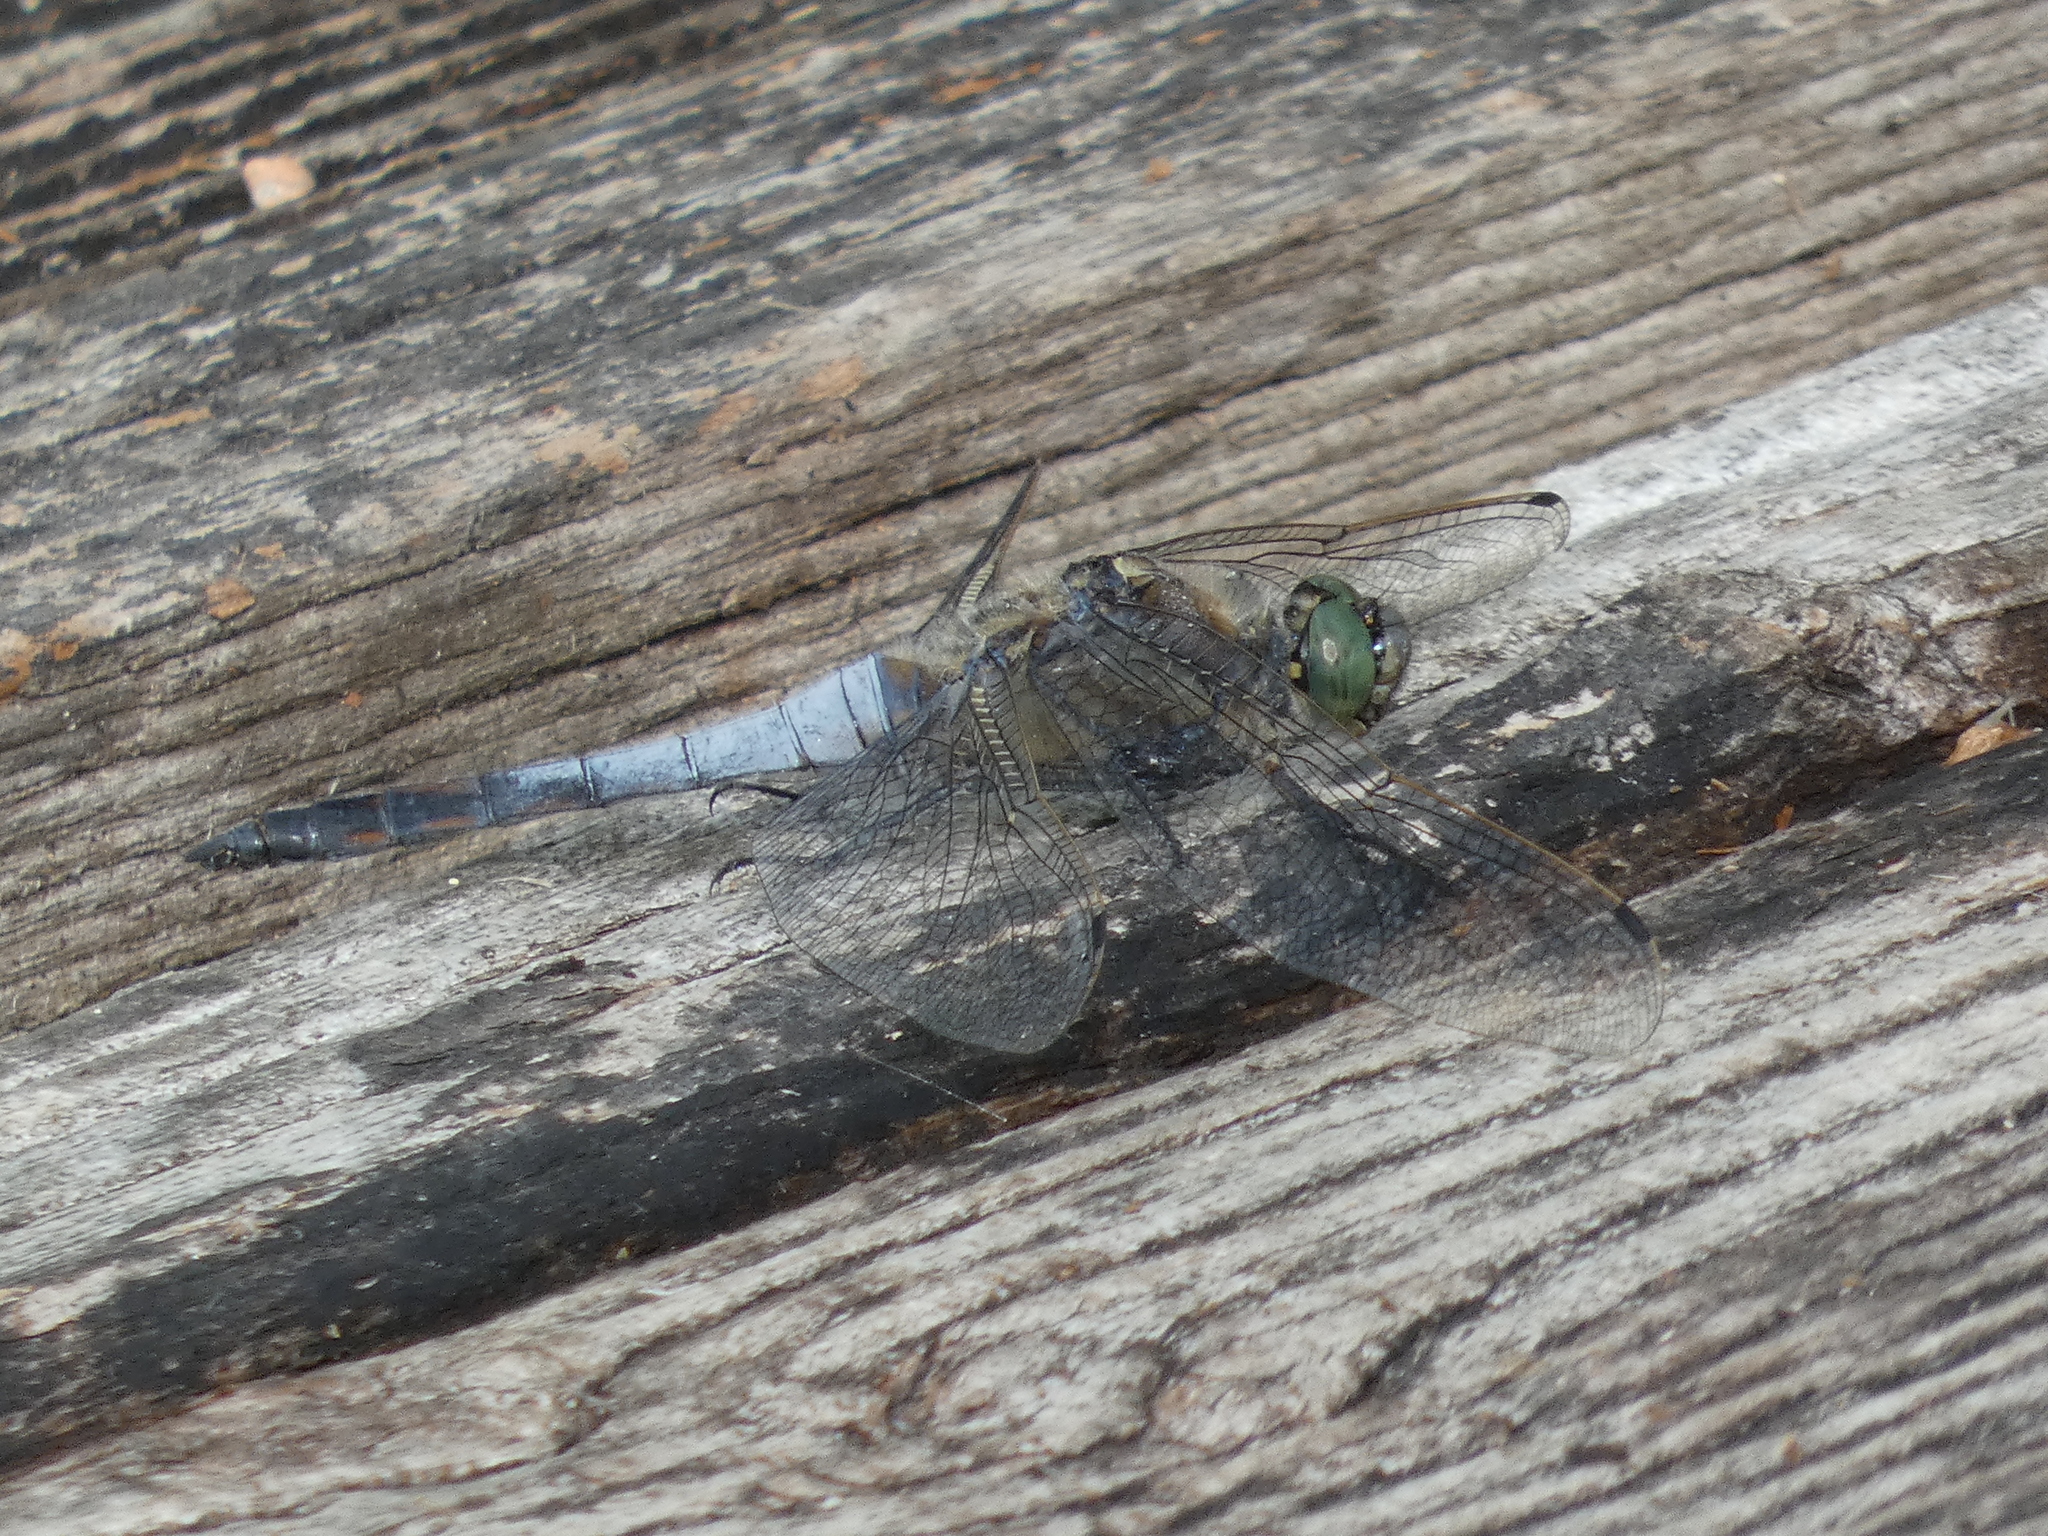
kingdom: Animalia
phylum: Arthropoda
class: Insecta
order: Odonata
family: Libellulidae
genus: Orthetrum
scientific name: Orthetrum cancellatum
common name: Black-tailed skimmer
